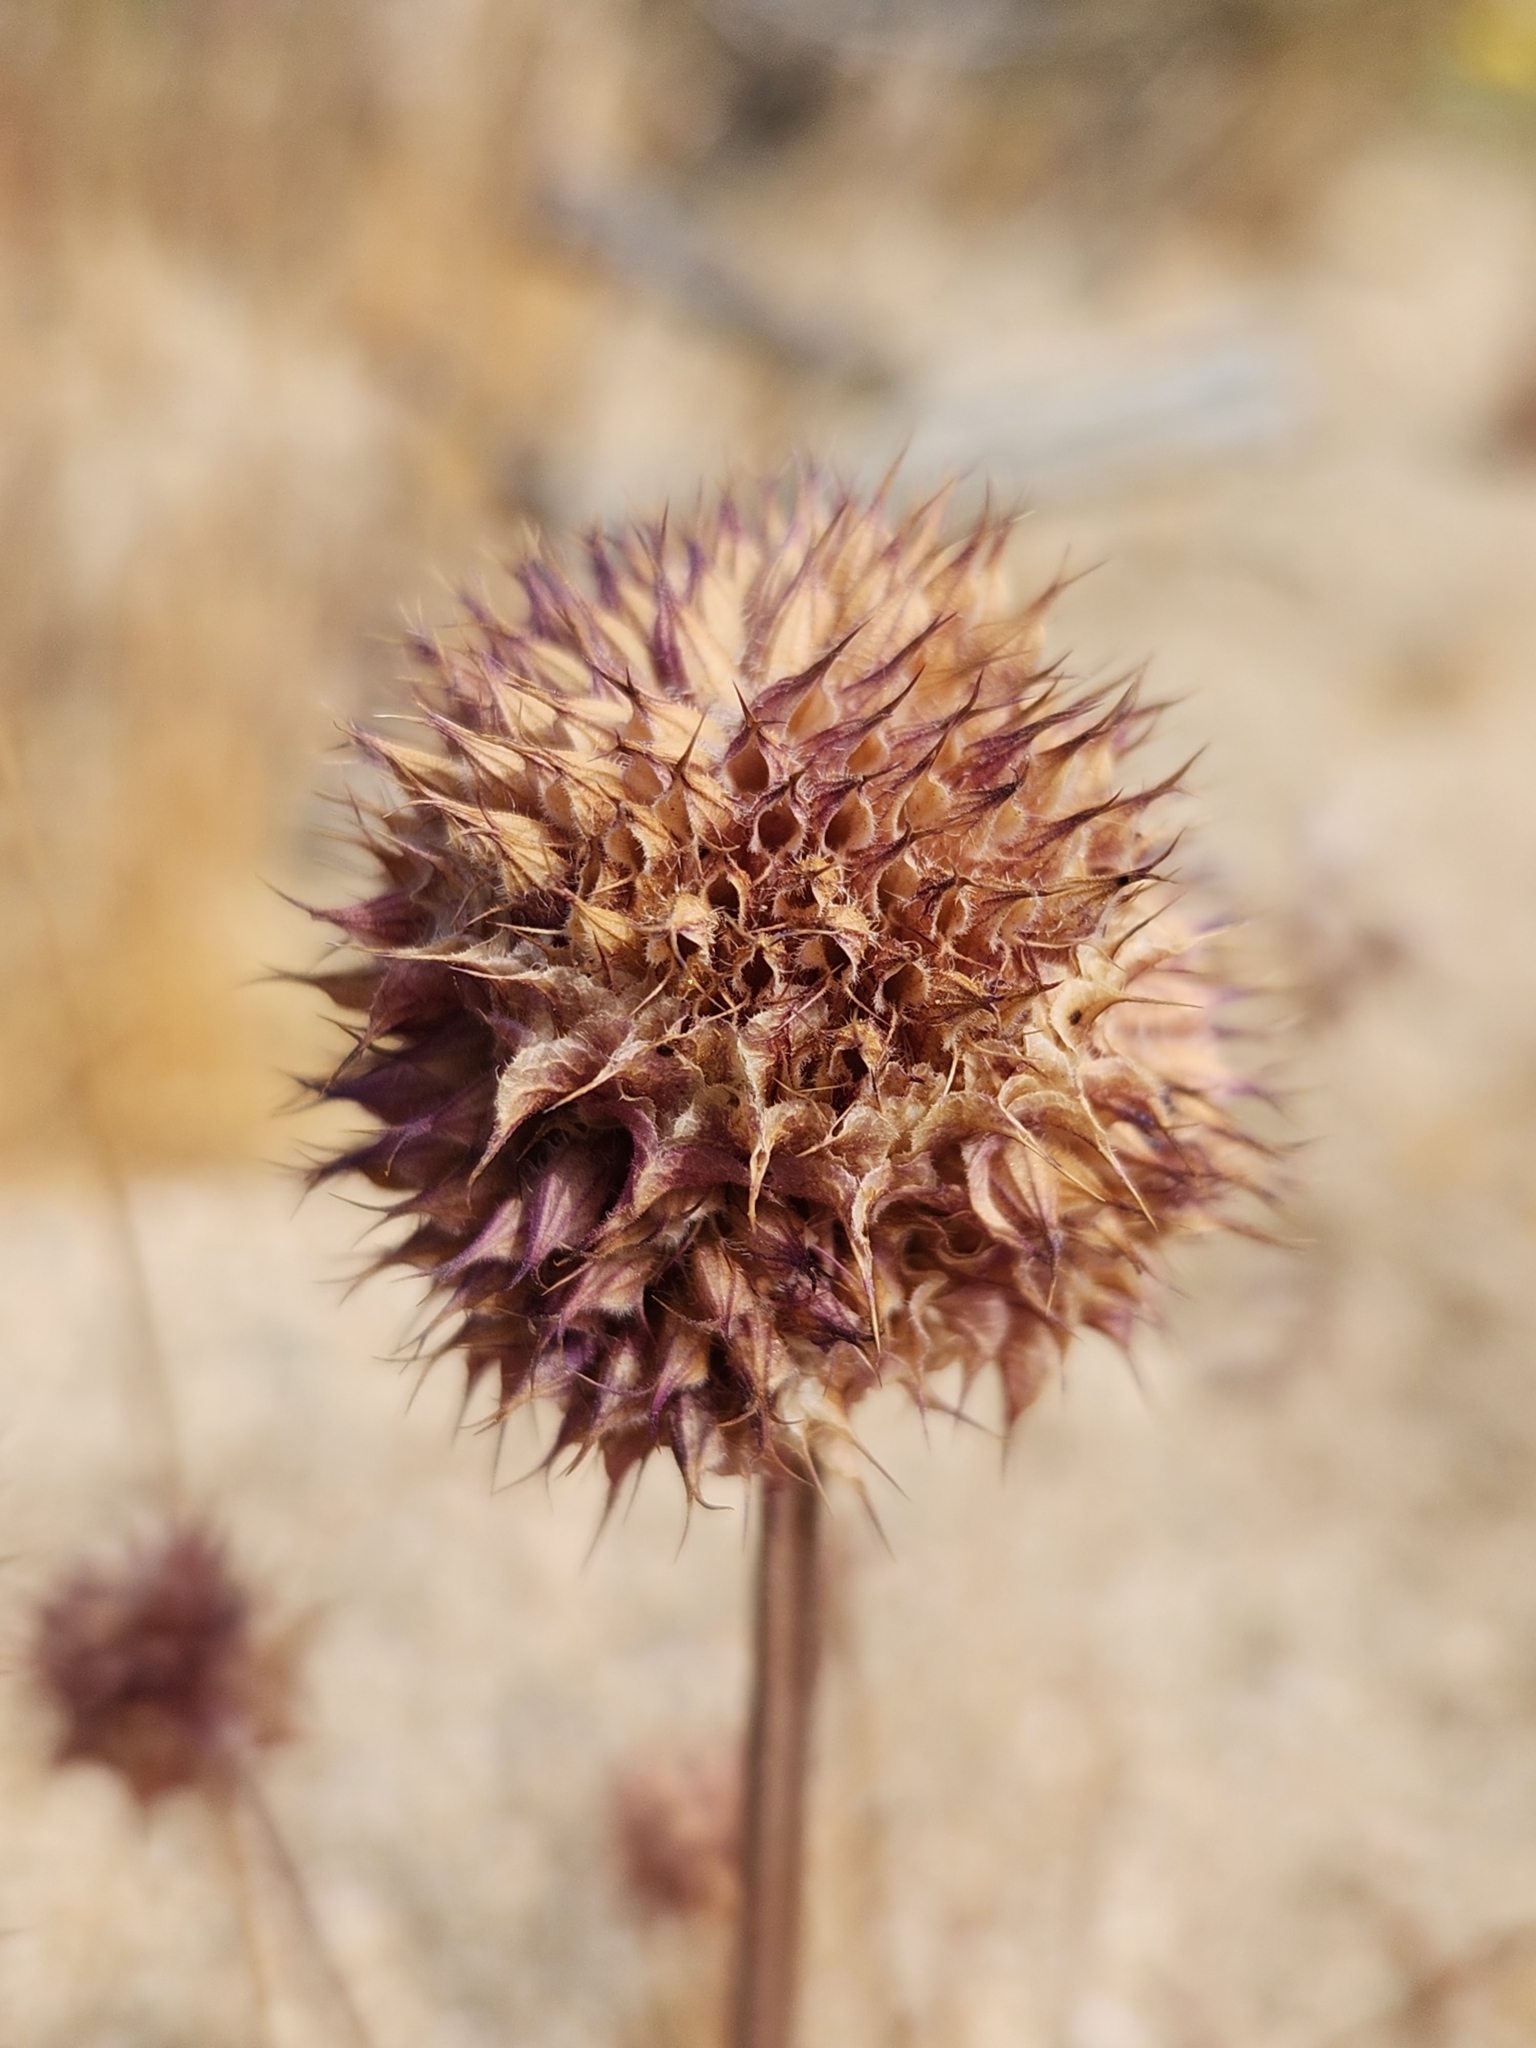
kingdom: Plantae
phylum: Tracheophyta
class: Magnoliopsida
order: Lamiales
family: Lamiaceae
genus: Salvia
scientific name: Salvia columbariae
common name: Chia
